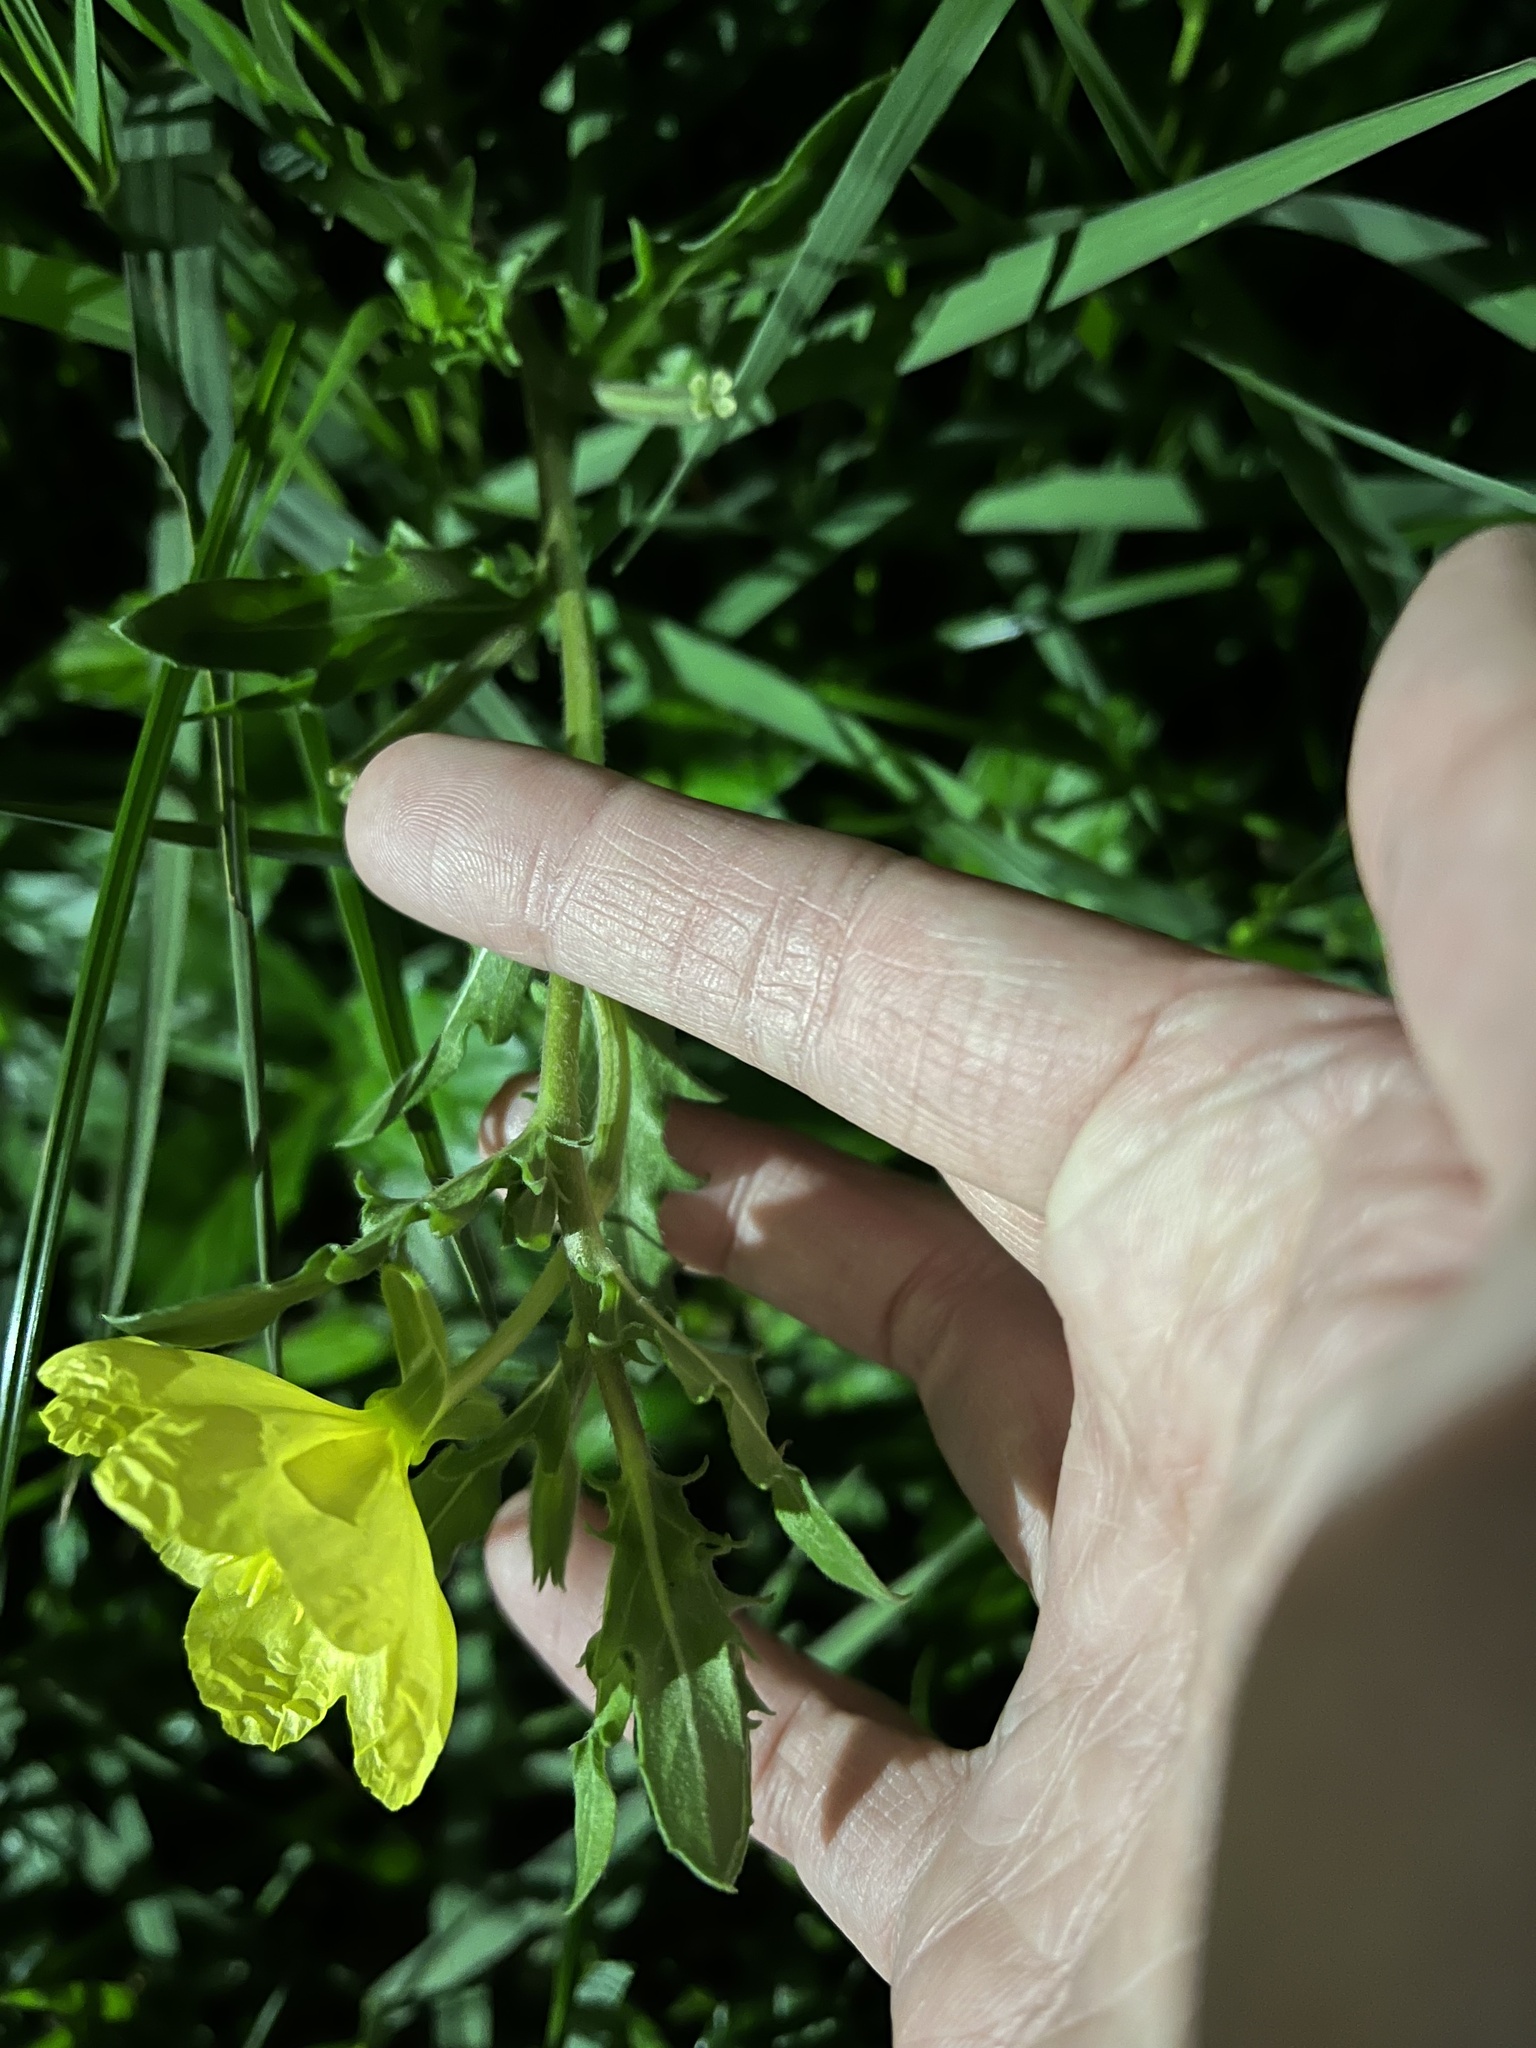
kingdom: Plantae
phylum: Tracheophyta
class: Magnoliopsida
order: Myrtales
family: Onagraceae
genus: Oenothera
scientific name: Oenothera laciniata
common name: Cut-leaved evening-primrose
